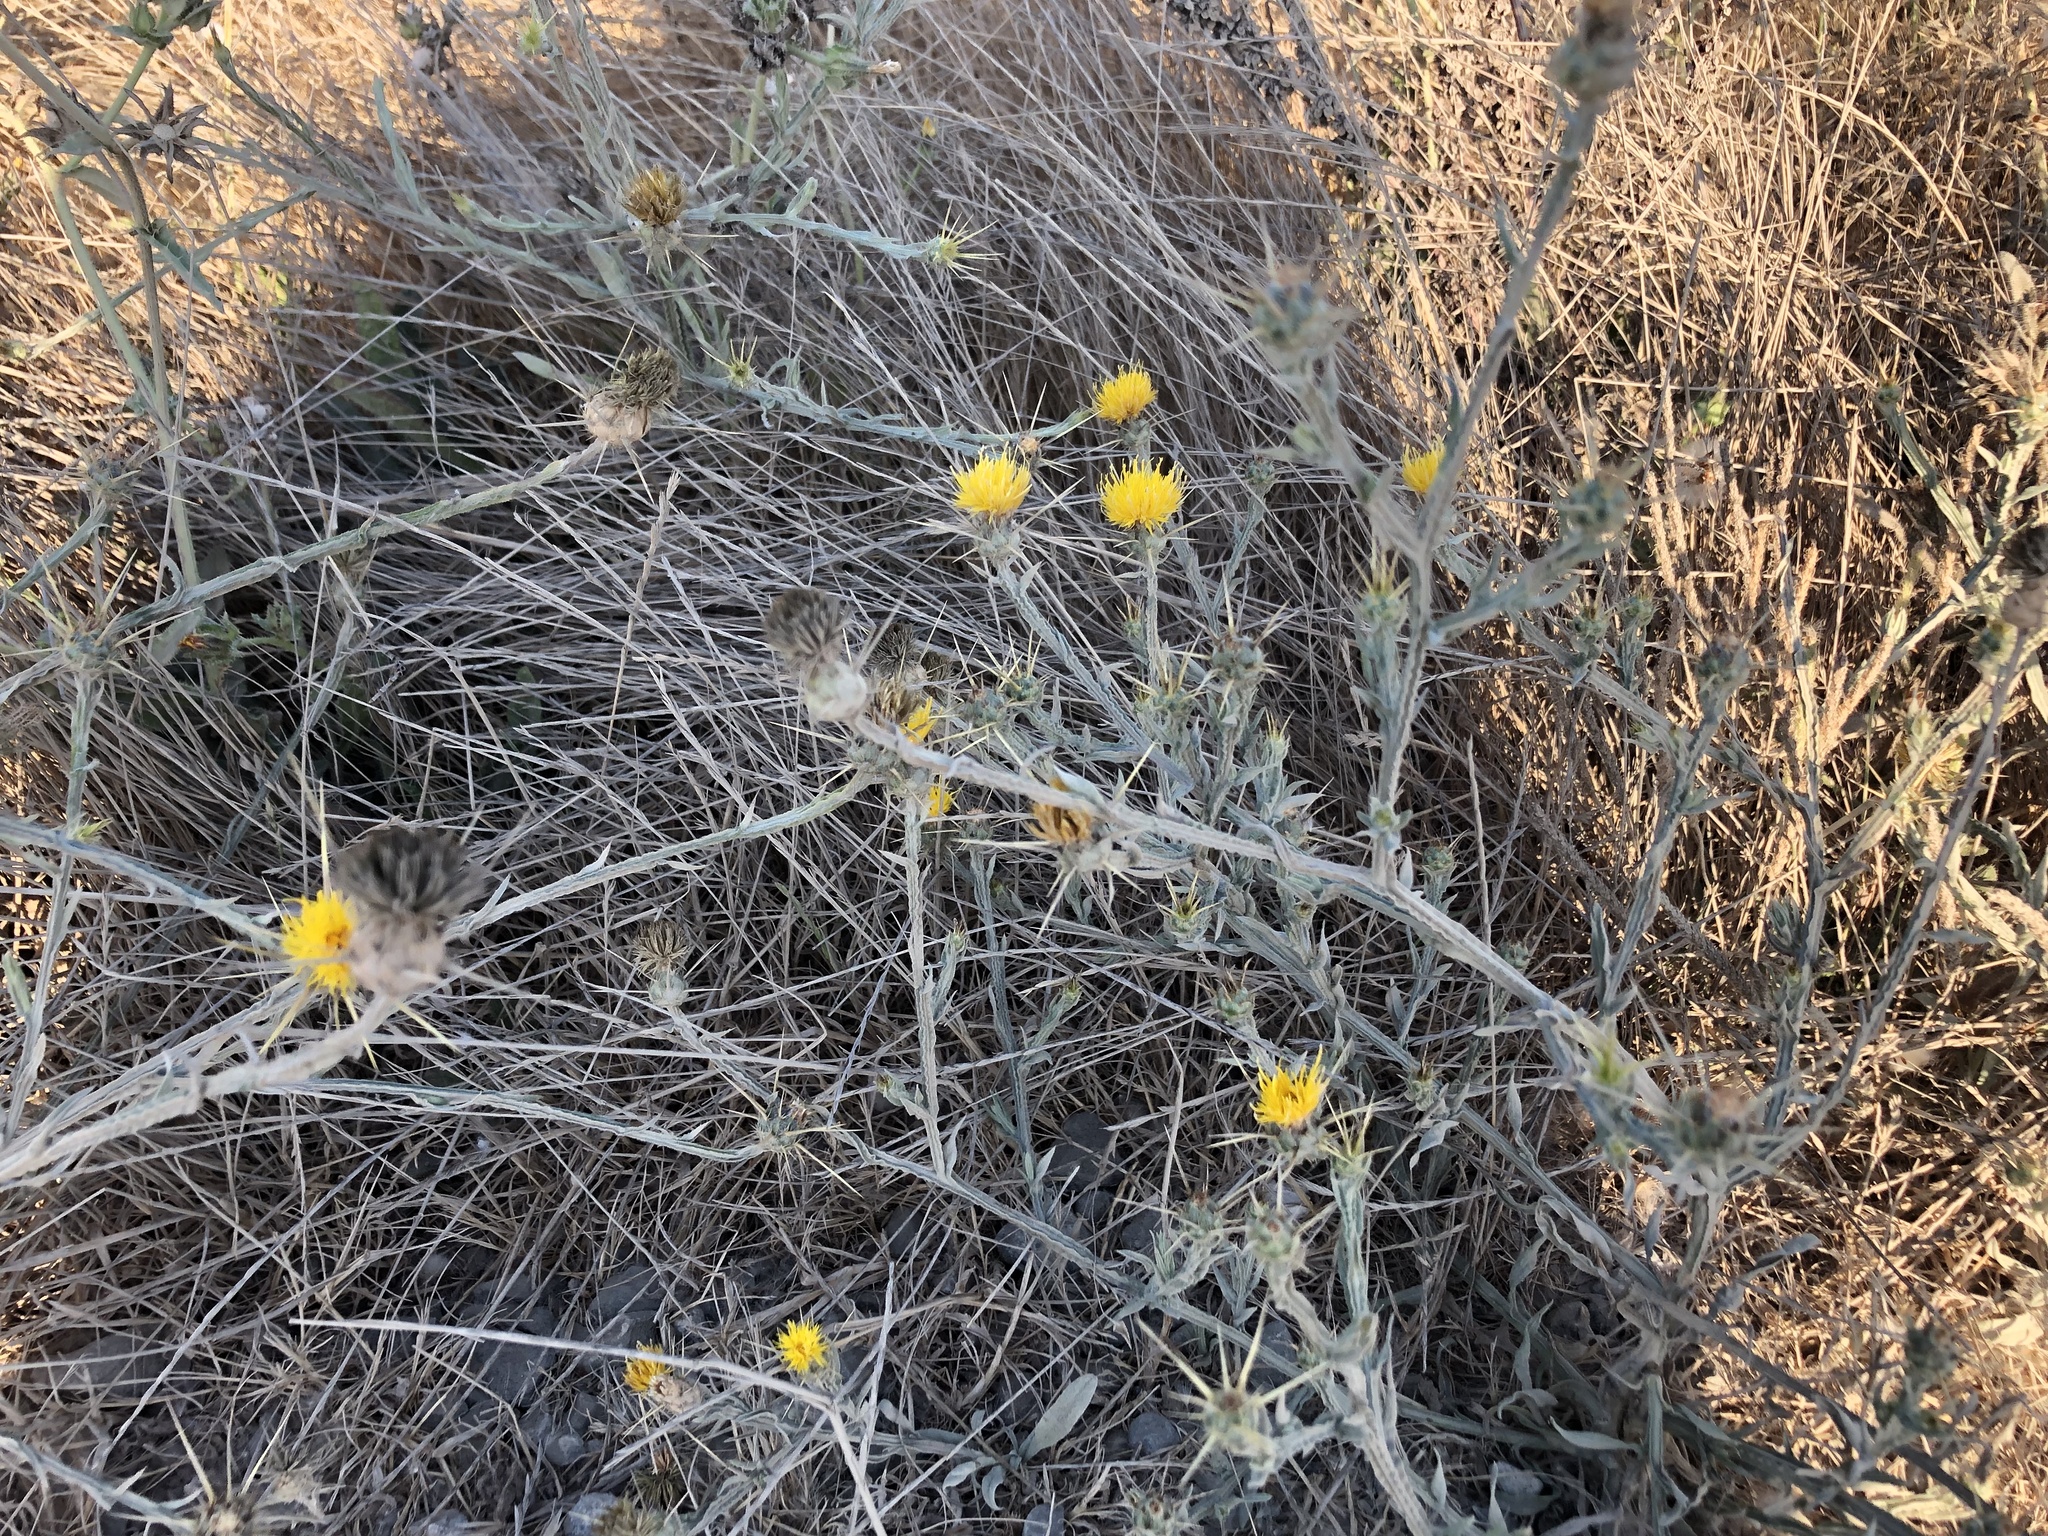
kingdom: Plantae
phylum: Tracheophyta
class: Magnoliopsida
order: Asterales
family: Asteraceae
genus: Centaurea
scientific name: Centaurea solstitialis
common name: Yellow star-thistle
